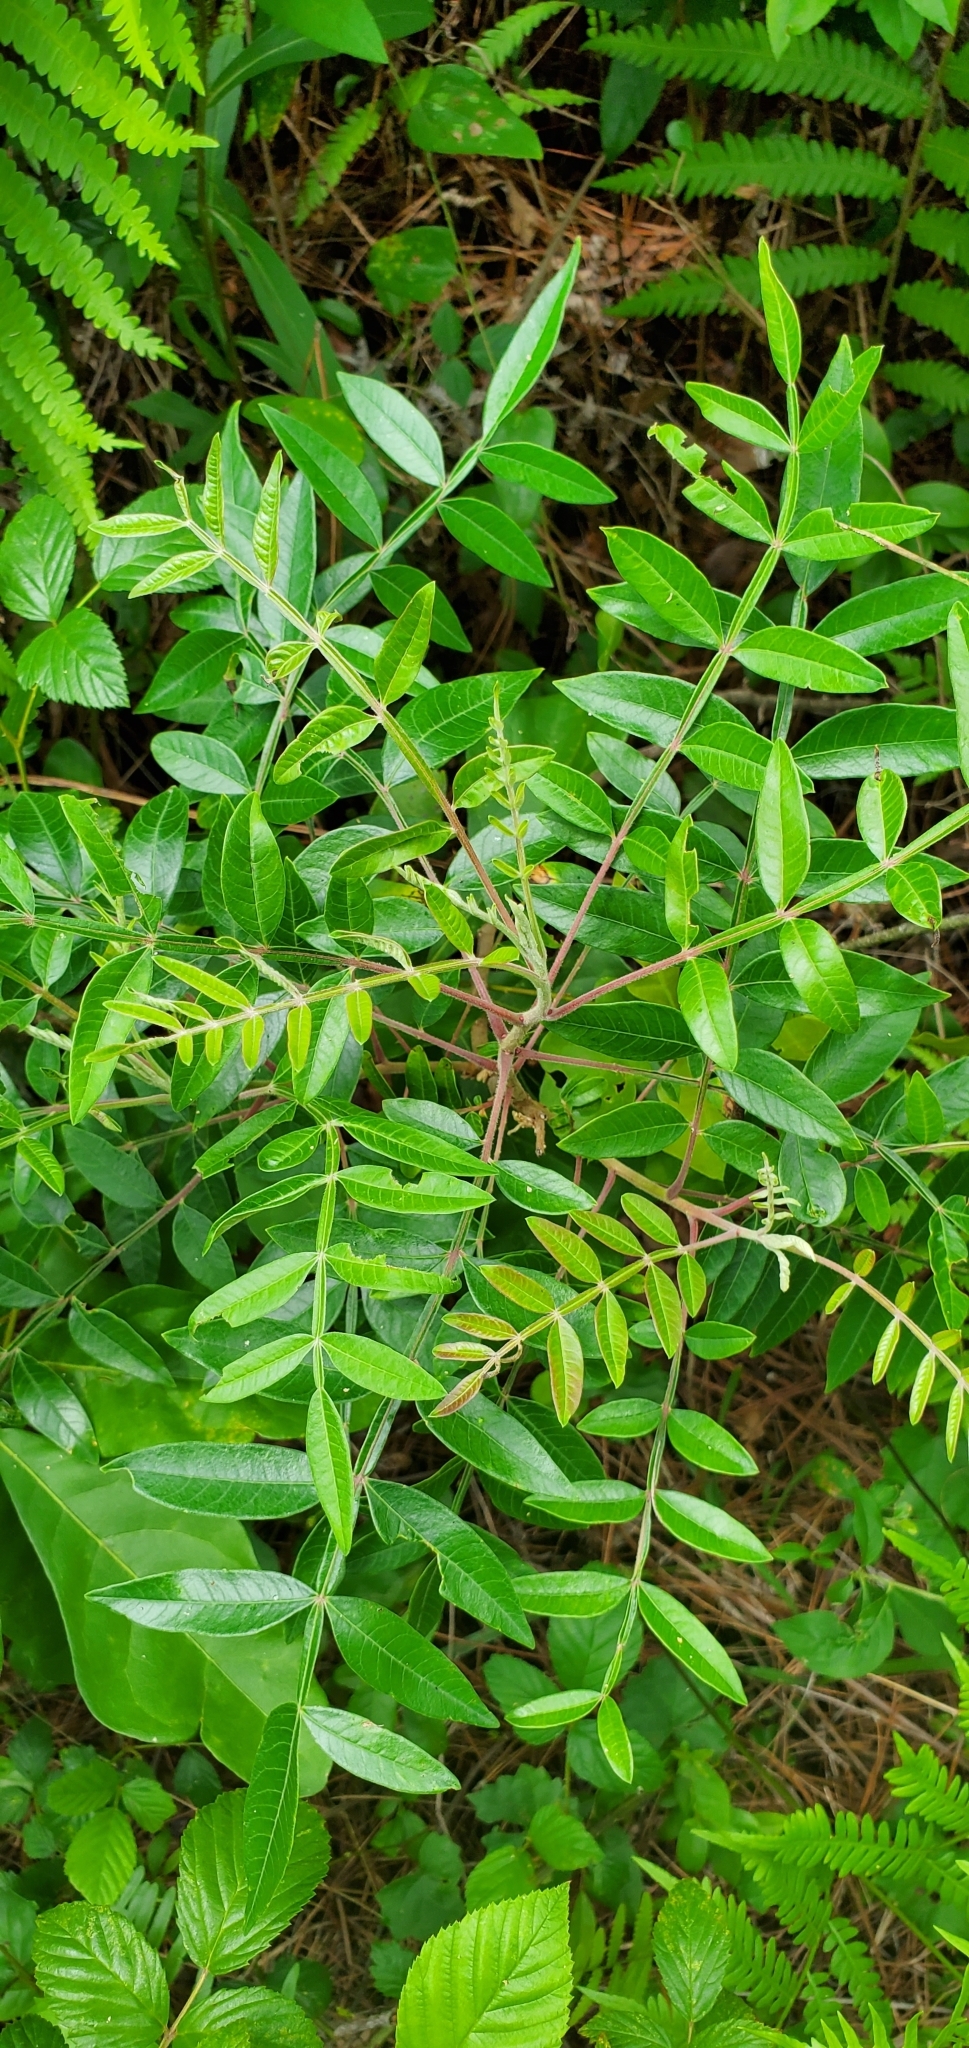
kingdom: Plantae
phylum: Tracheophyta
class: Magnoliopsida
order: Sapindales
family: Anacardiaceae
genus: Rhus
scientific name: Rhus copallina
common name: Shining sumac
